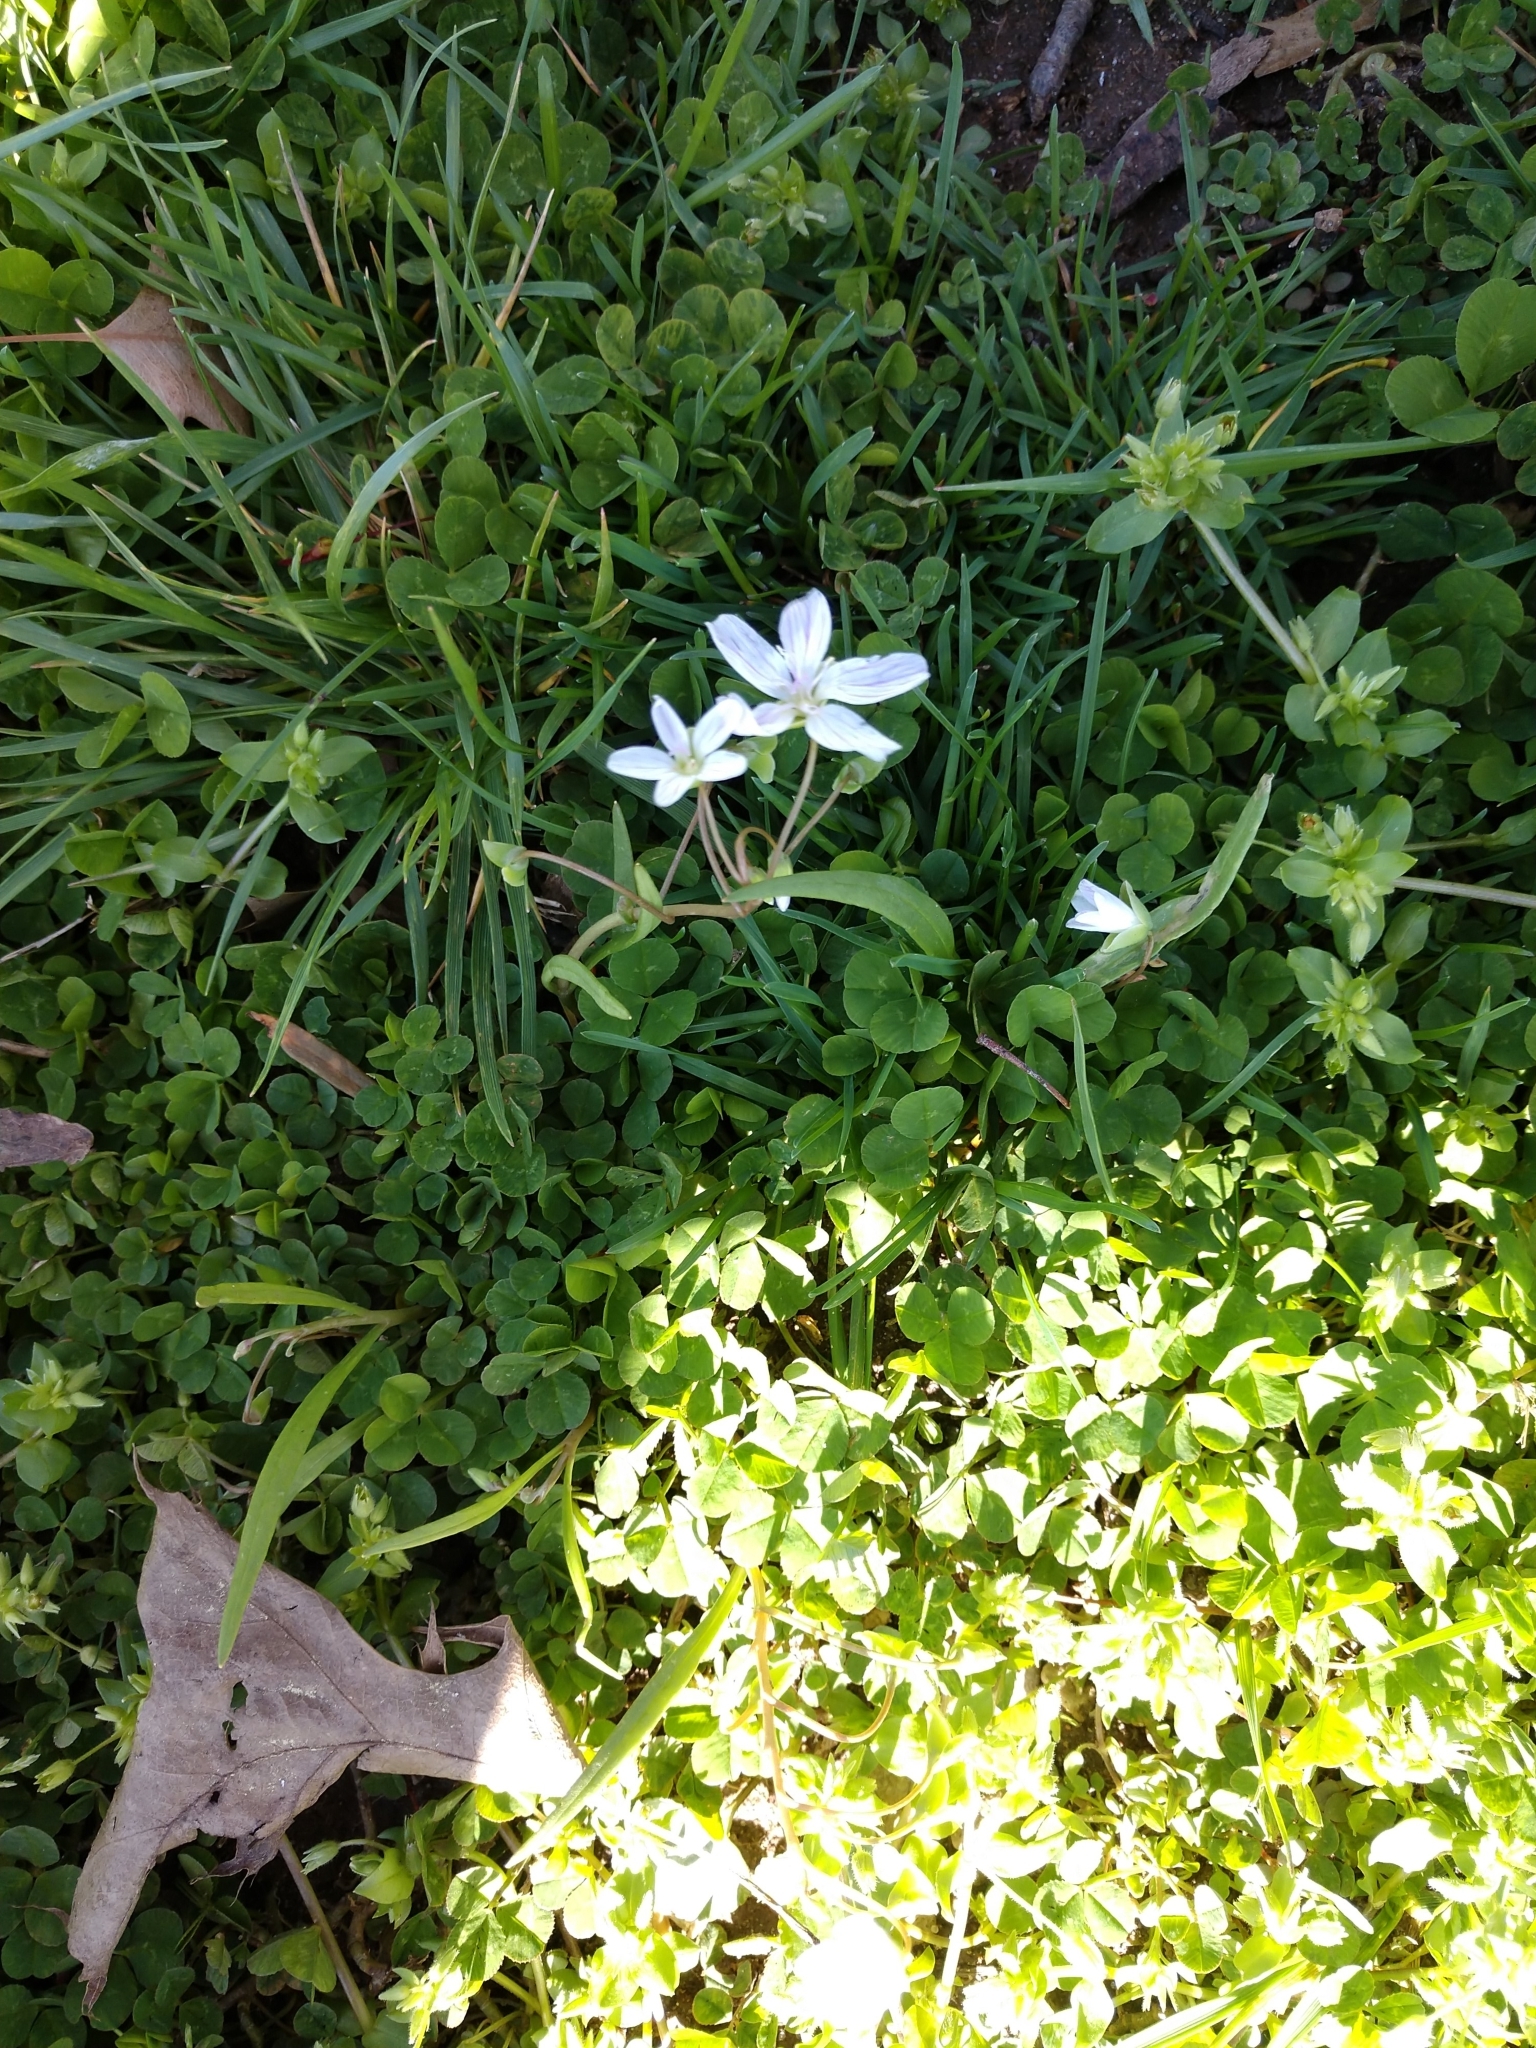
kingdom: Plantae
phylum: Tracheophyta
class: Magnoliopsida
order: Caryophyllales
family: Montiaceae
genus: Claytonia
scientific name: Claytonia virginica
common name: Virginia springbeauty
